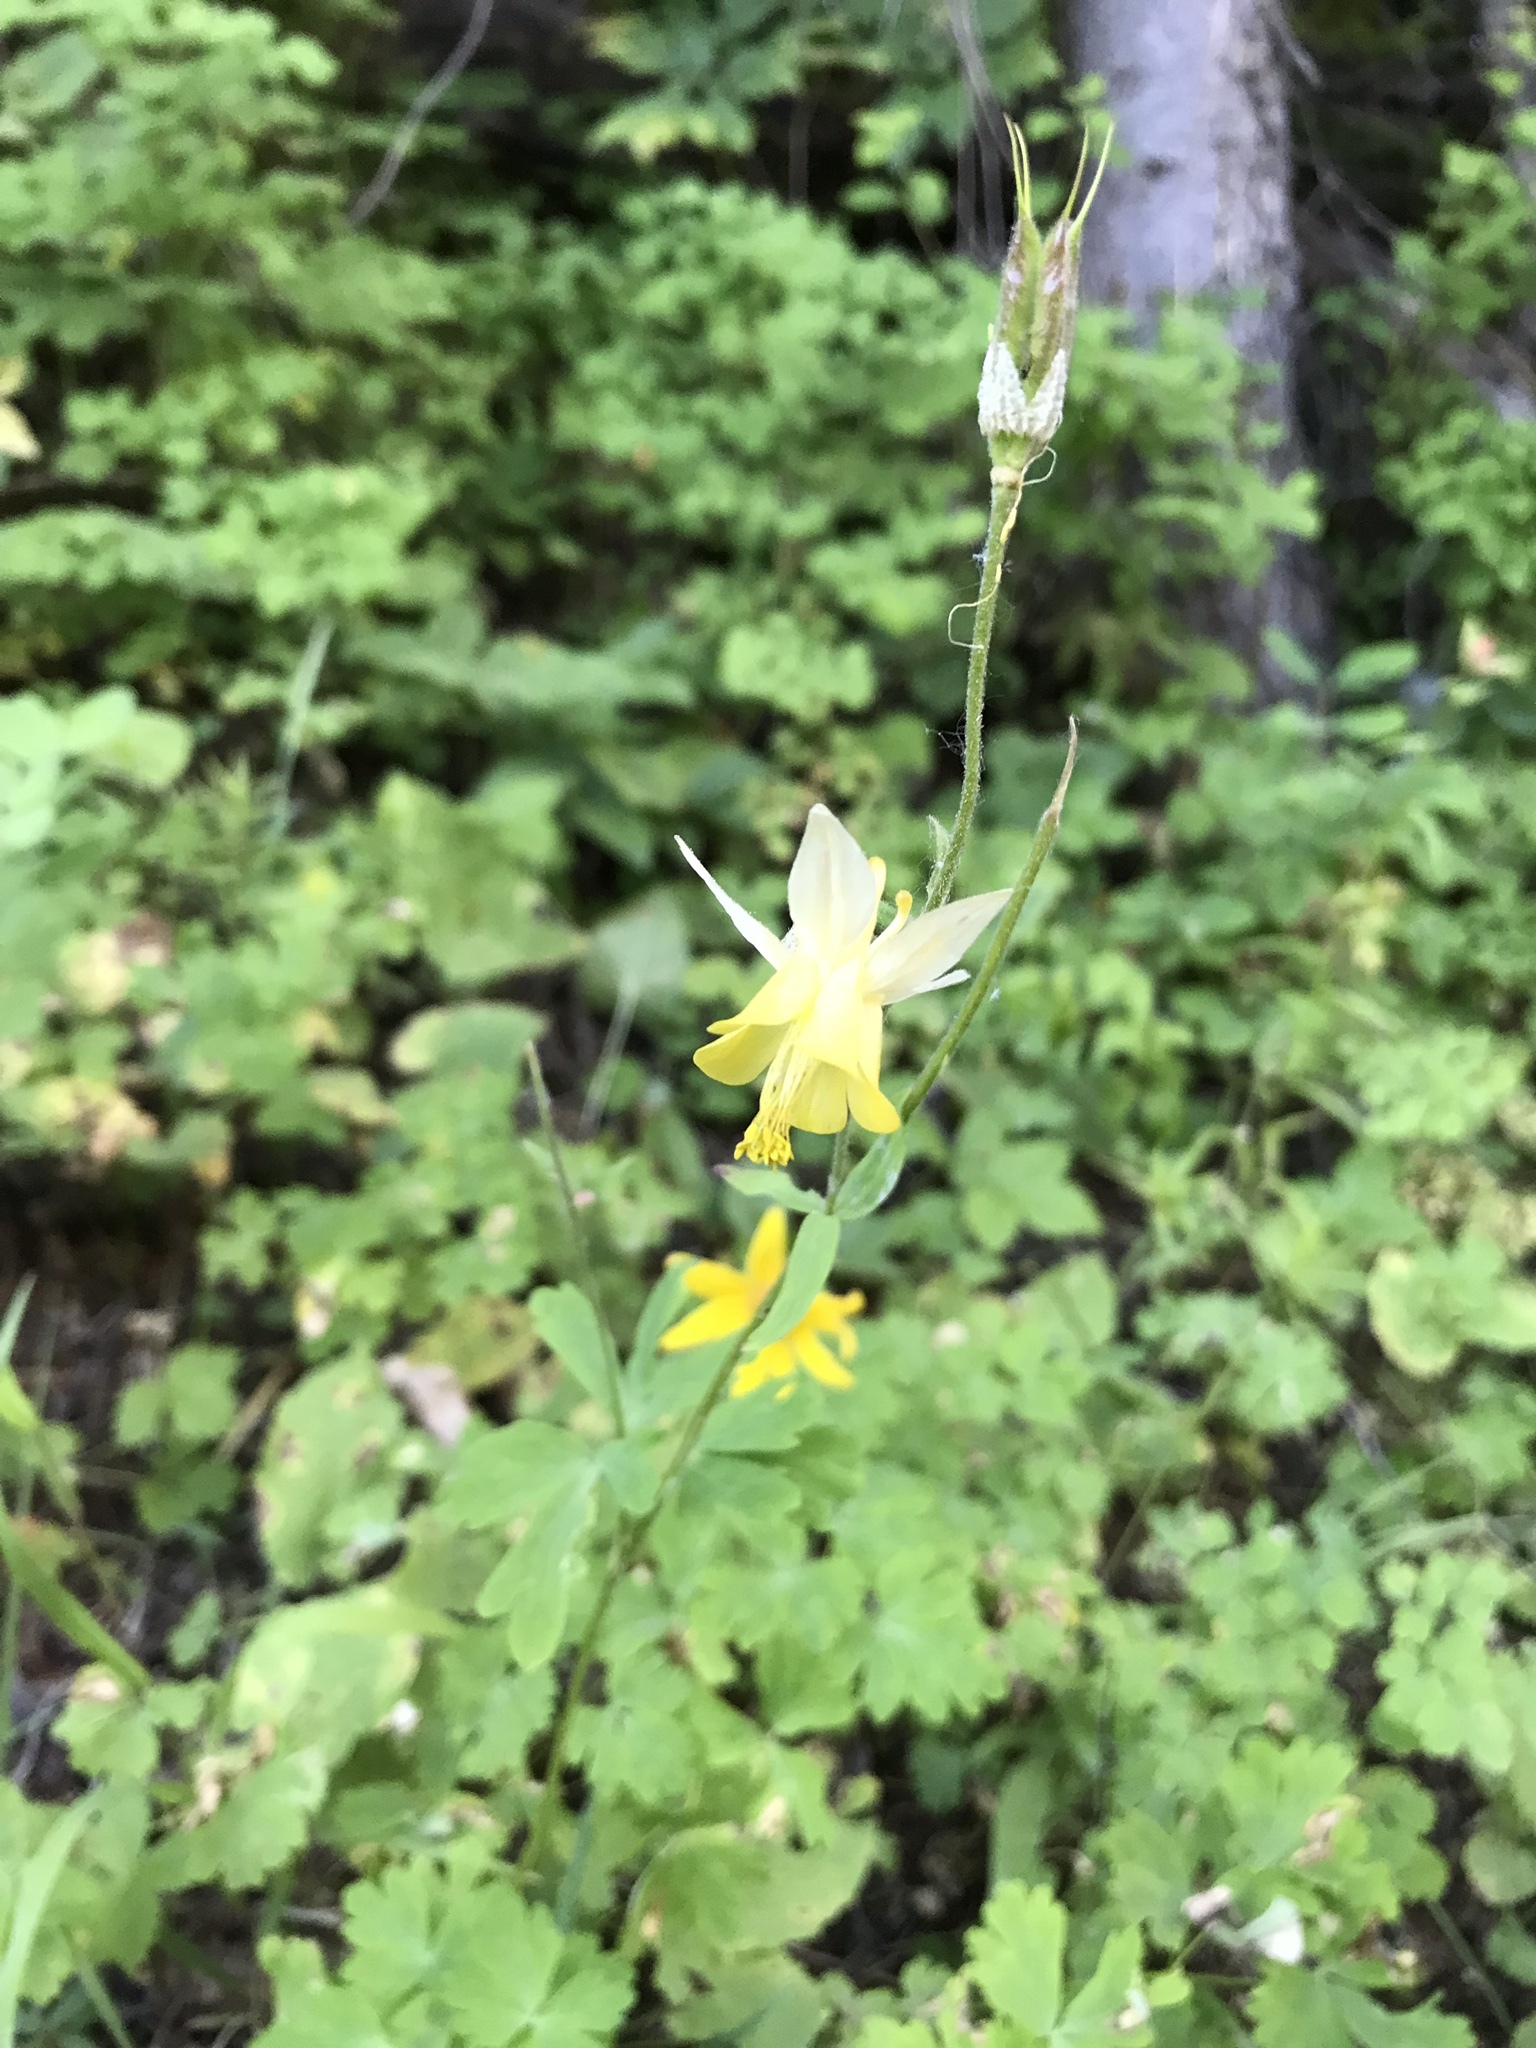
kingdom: Plantae
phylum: Tracheophyta
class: Magnoliopsida
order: Ranunculales
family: Ranunculaceae
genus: Aquilegia
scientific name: Aquilegia flavescens
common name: Yellow columbine
